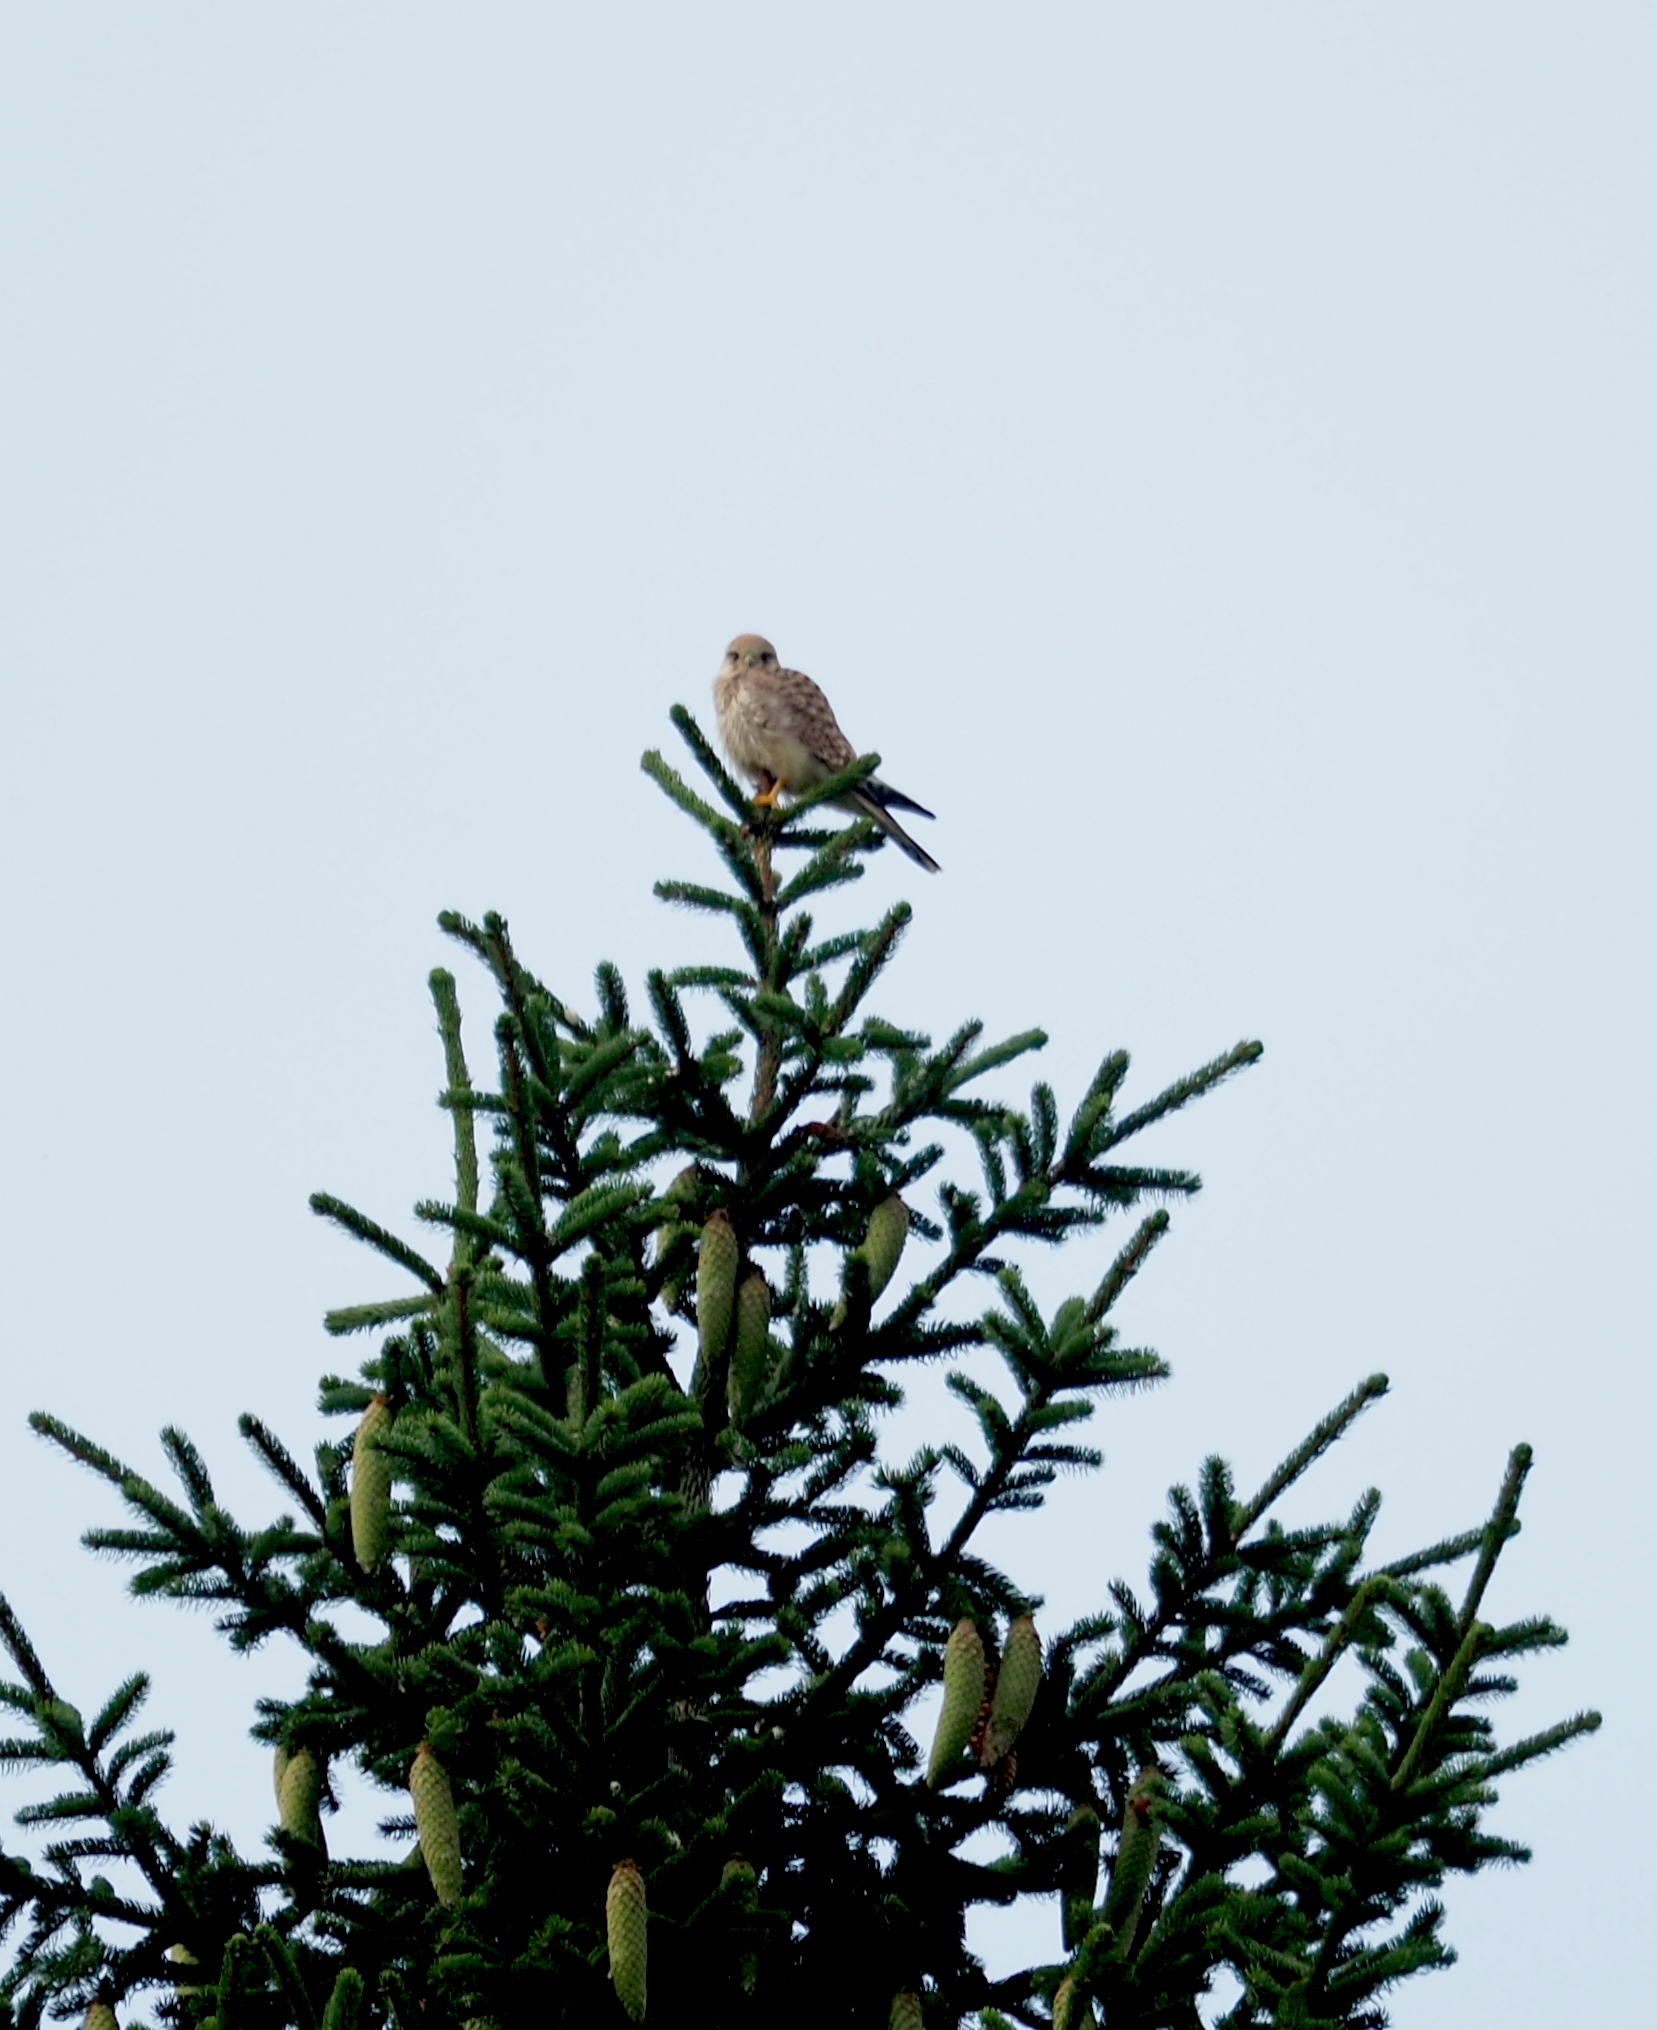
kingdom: Animalia
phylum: Chordata
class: Aves
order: Falconiformes
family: Falconidae
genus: Falco
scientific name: Falco tinnunculus
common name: Common kestrel
